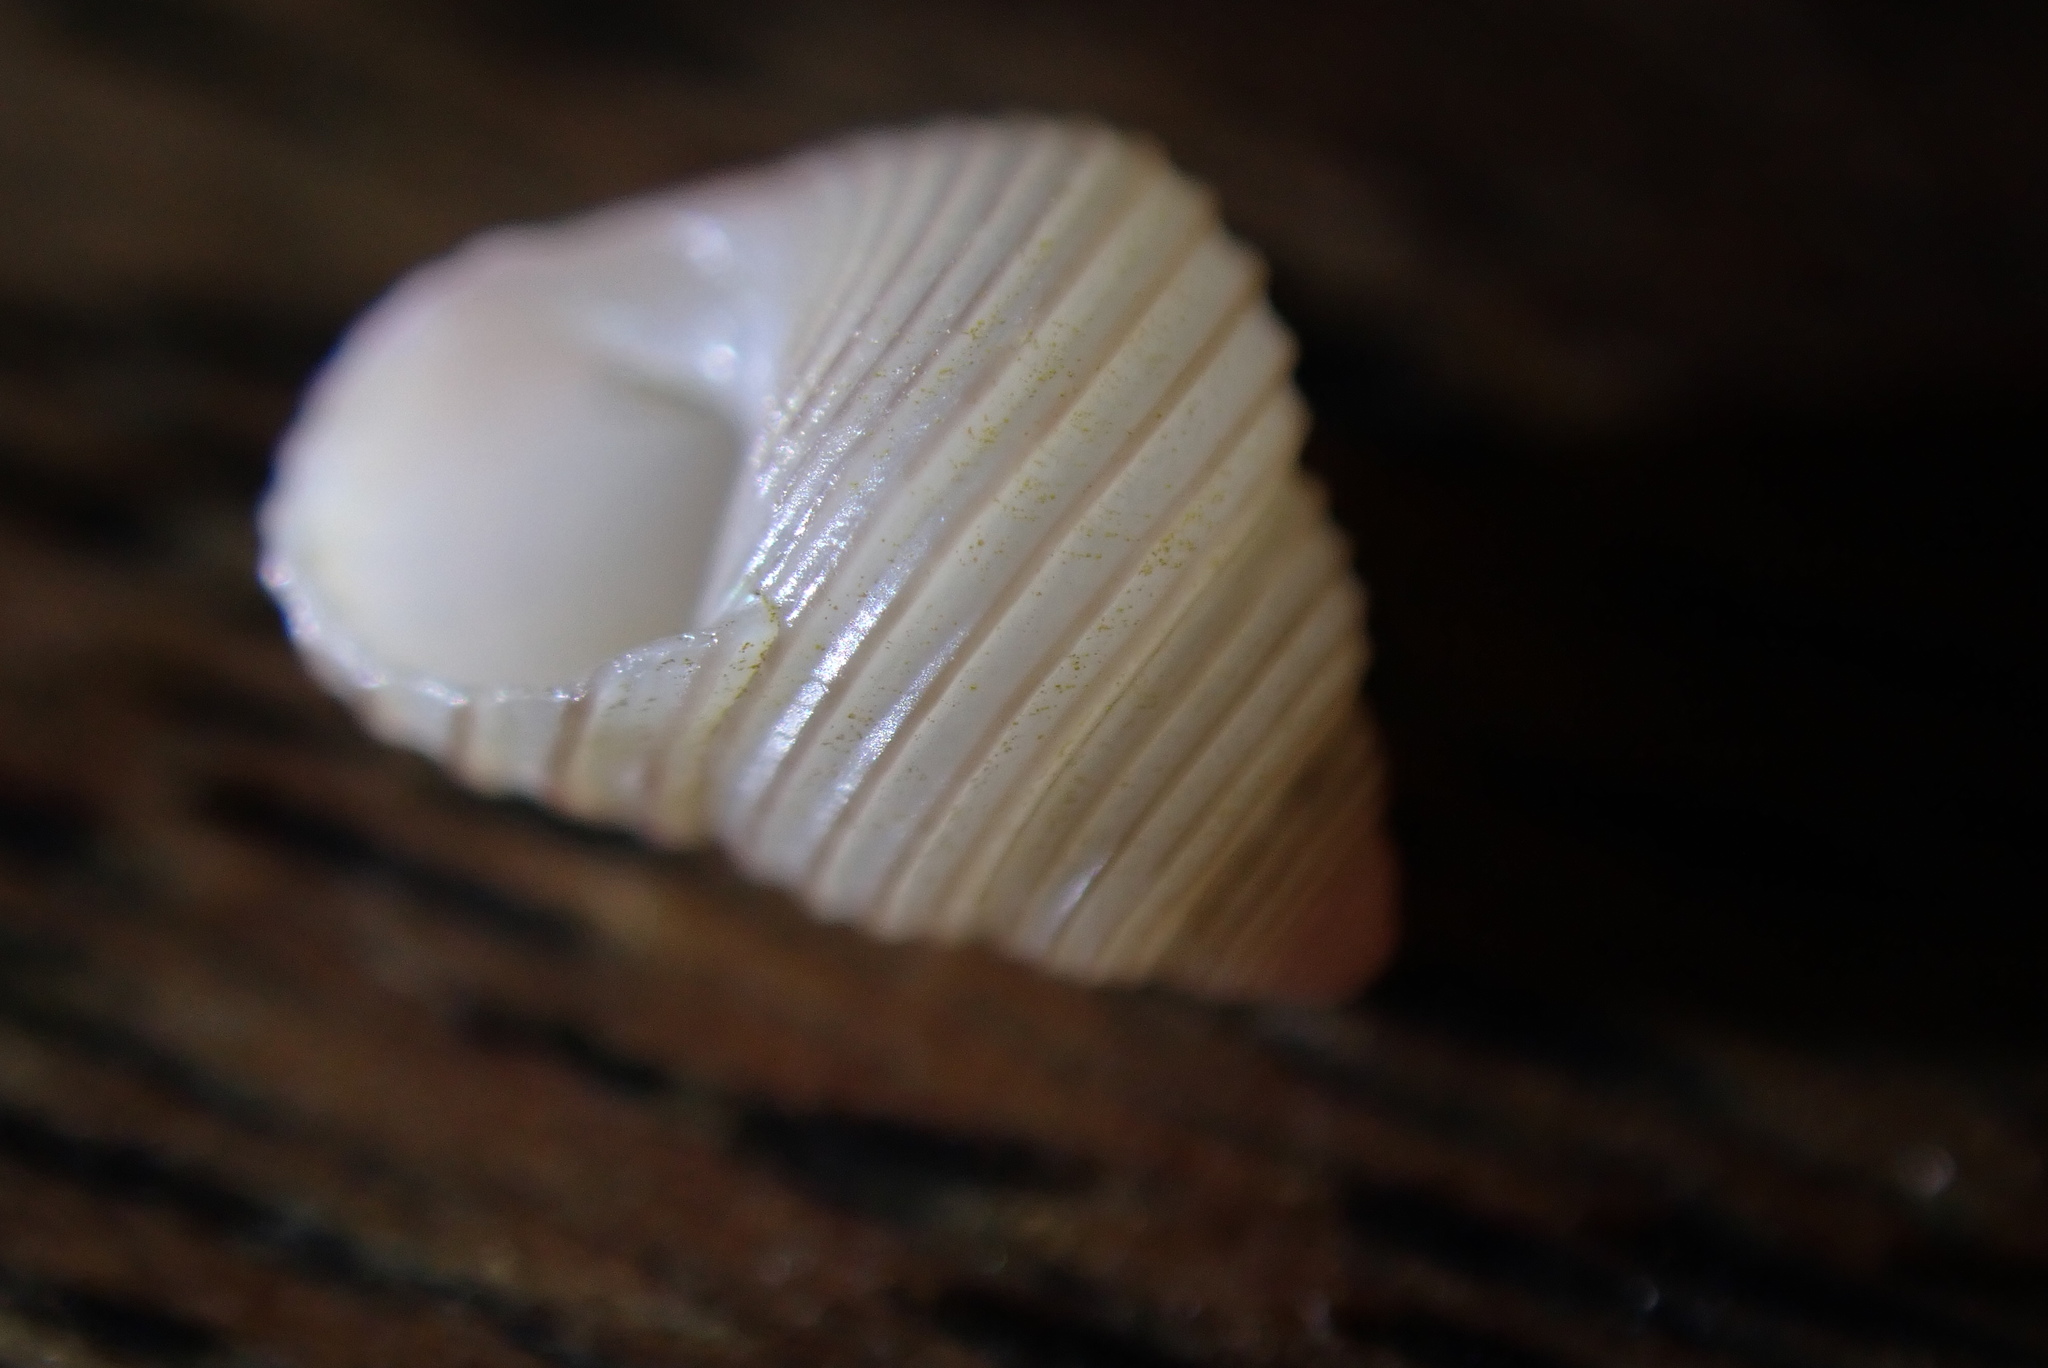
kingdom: Animalia
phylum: Mollusca
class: Gastropoda
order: Trochida
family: Trochidae
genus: Roseaplagis
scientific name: Roseaplagis rufozona
